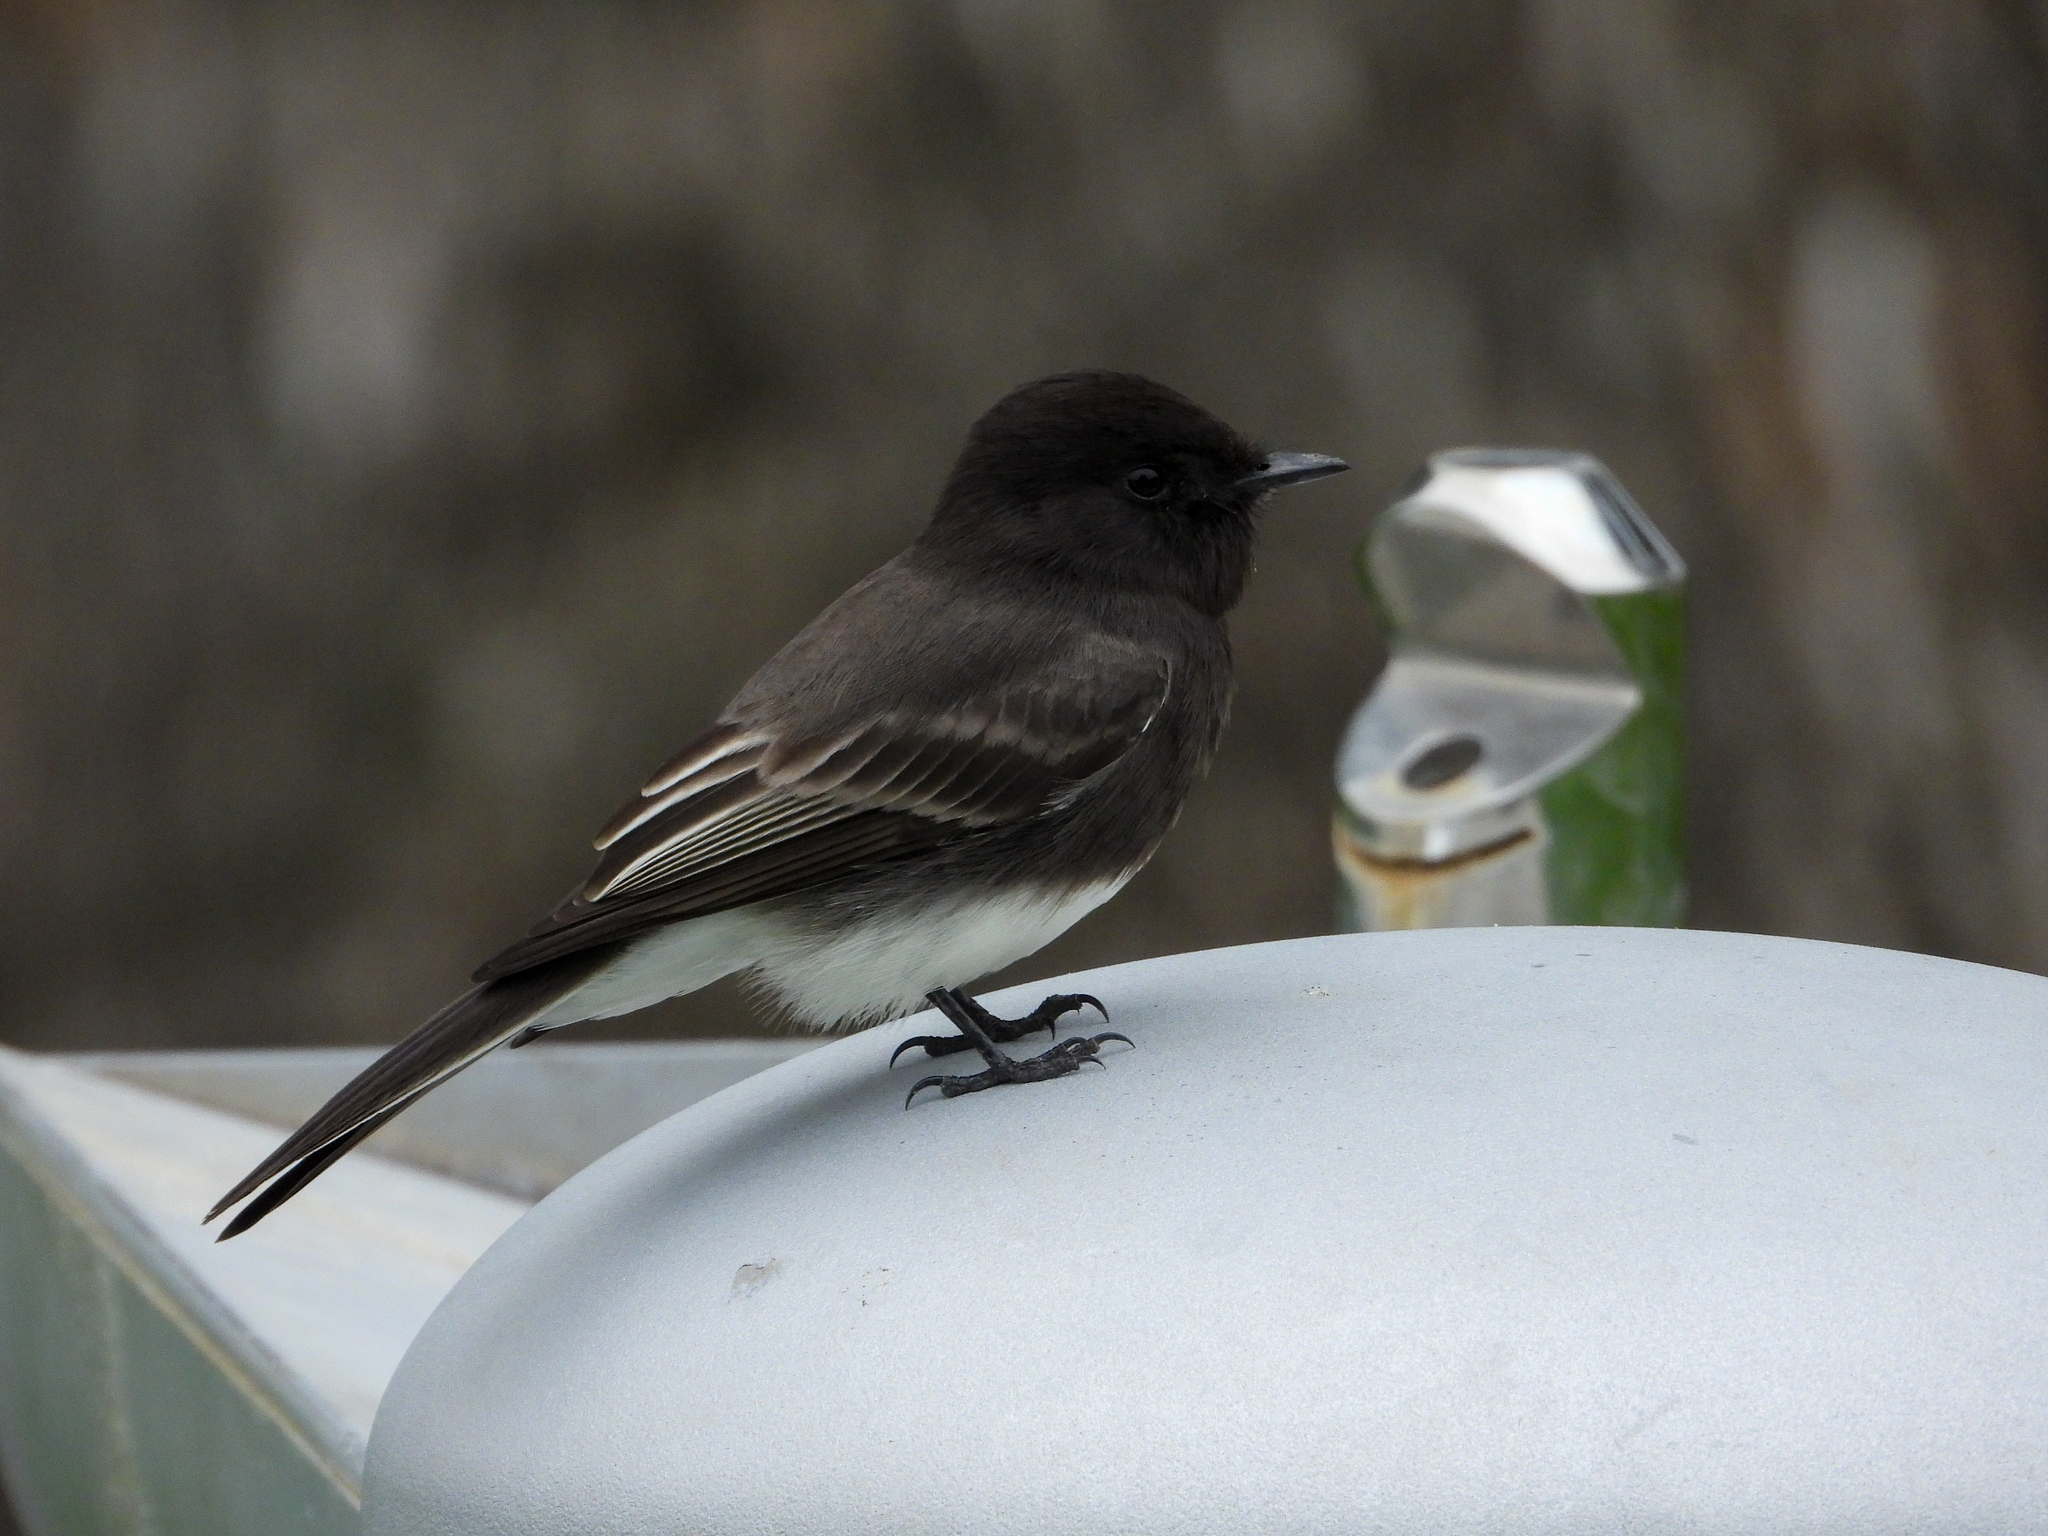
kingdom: Animalia
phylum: Chordata
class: Aves
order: Passeriformes
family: Tyrannidae
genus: Sayornis
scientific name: Sayornis nigricans
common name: Black phoebe
